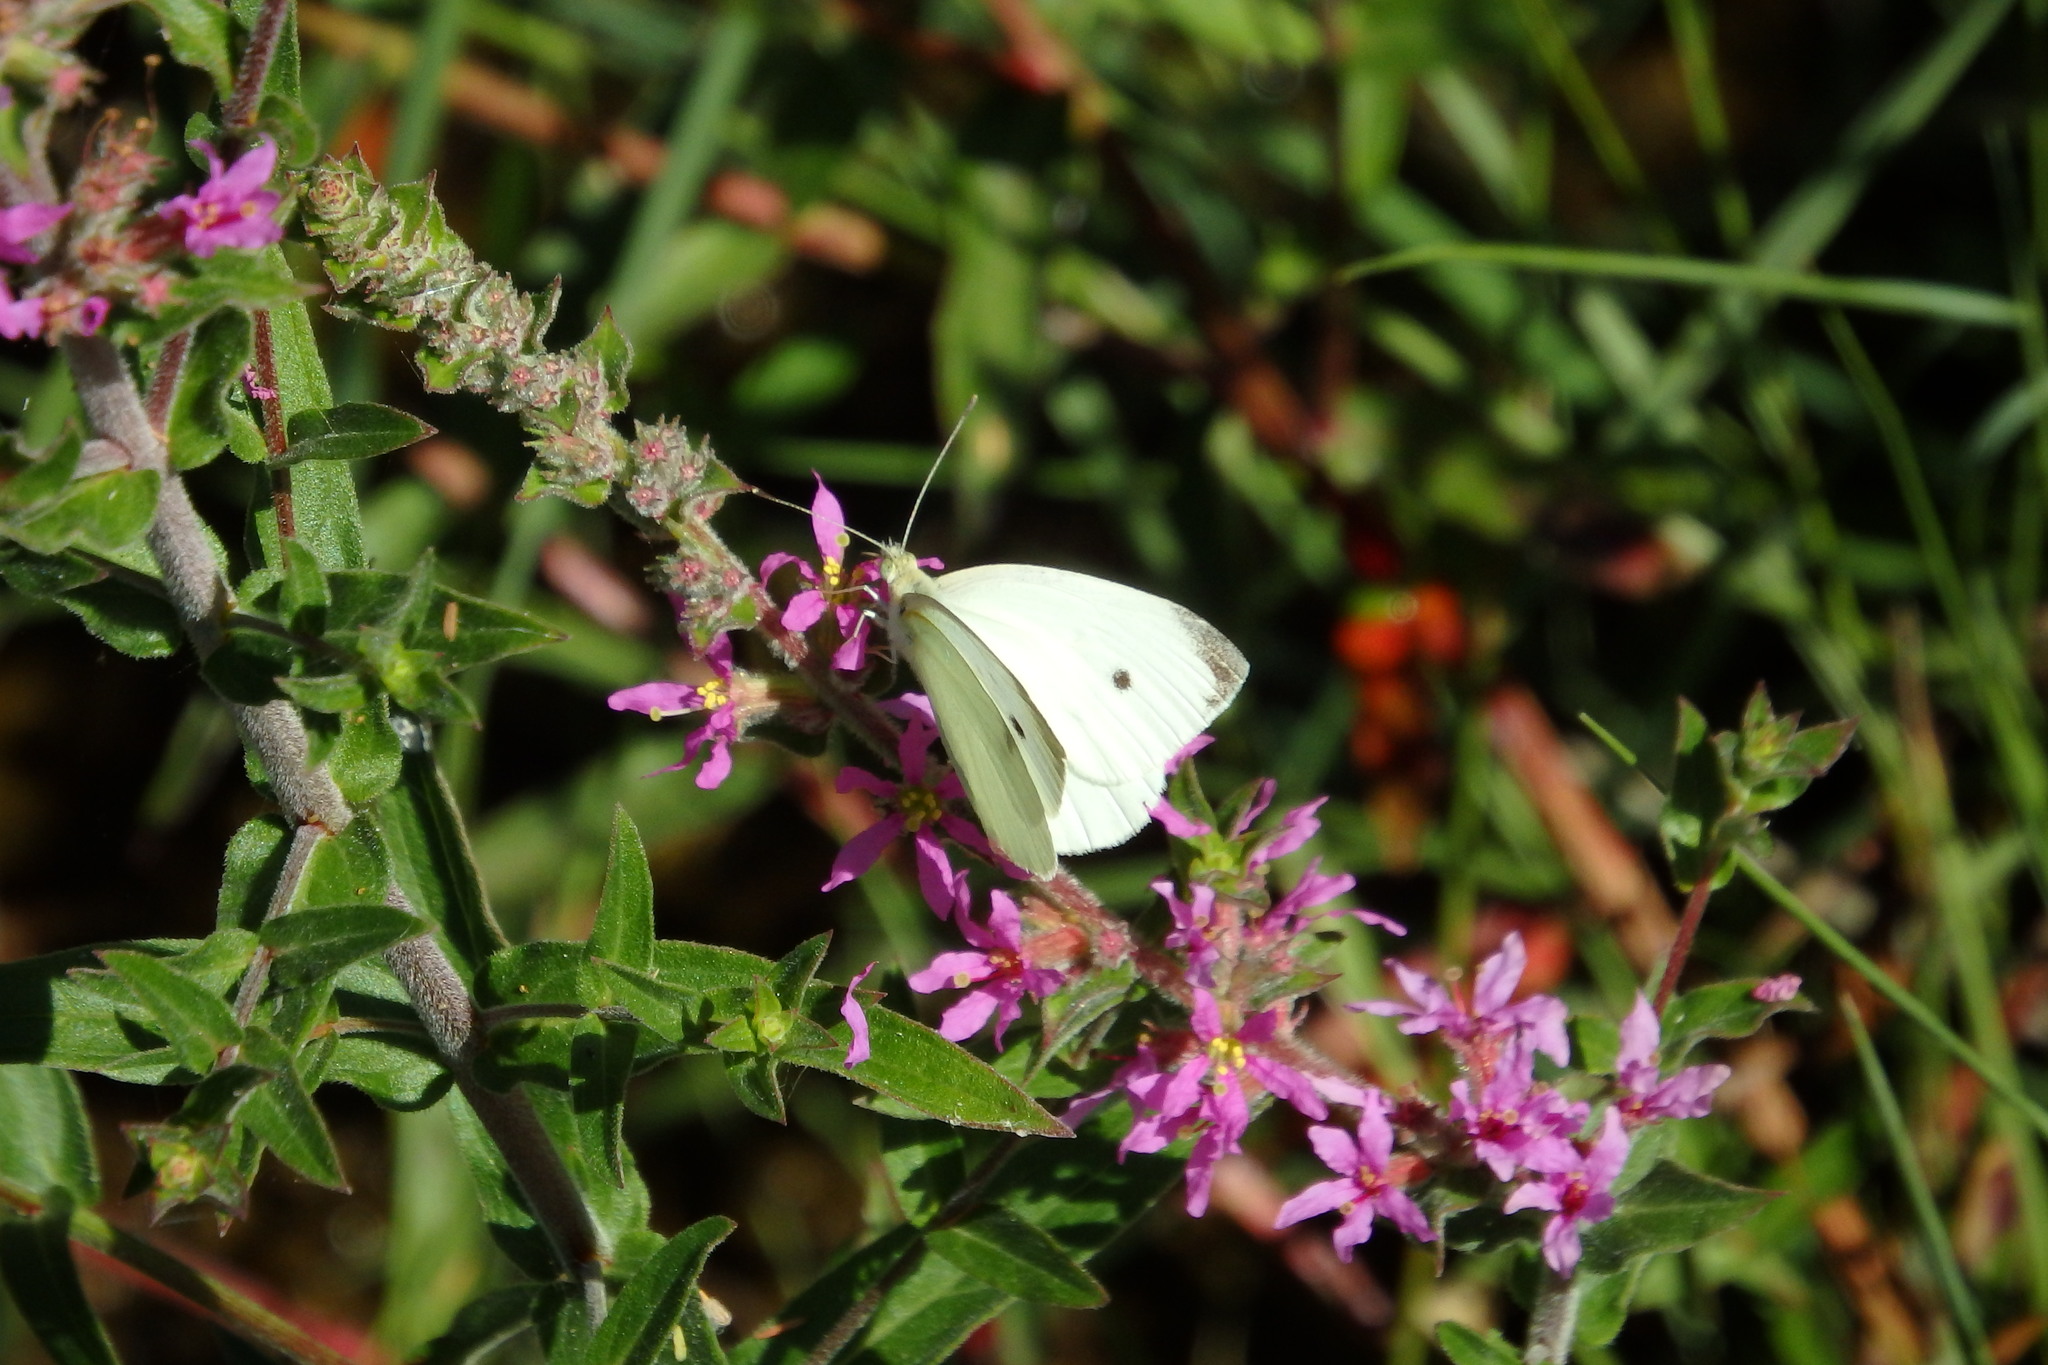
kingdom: Animalia
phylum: Arthropoda
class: Insecta
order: Lepidoptera
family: Pieridae
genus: Pieris
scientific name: Pieris rapae
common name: Small white
